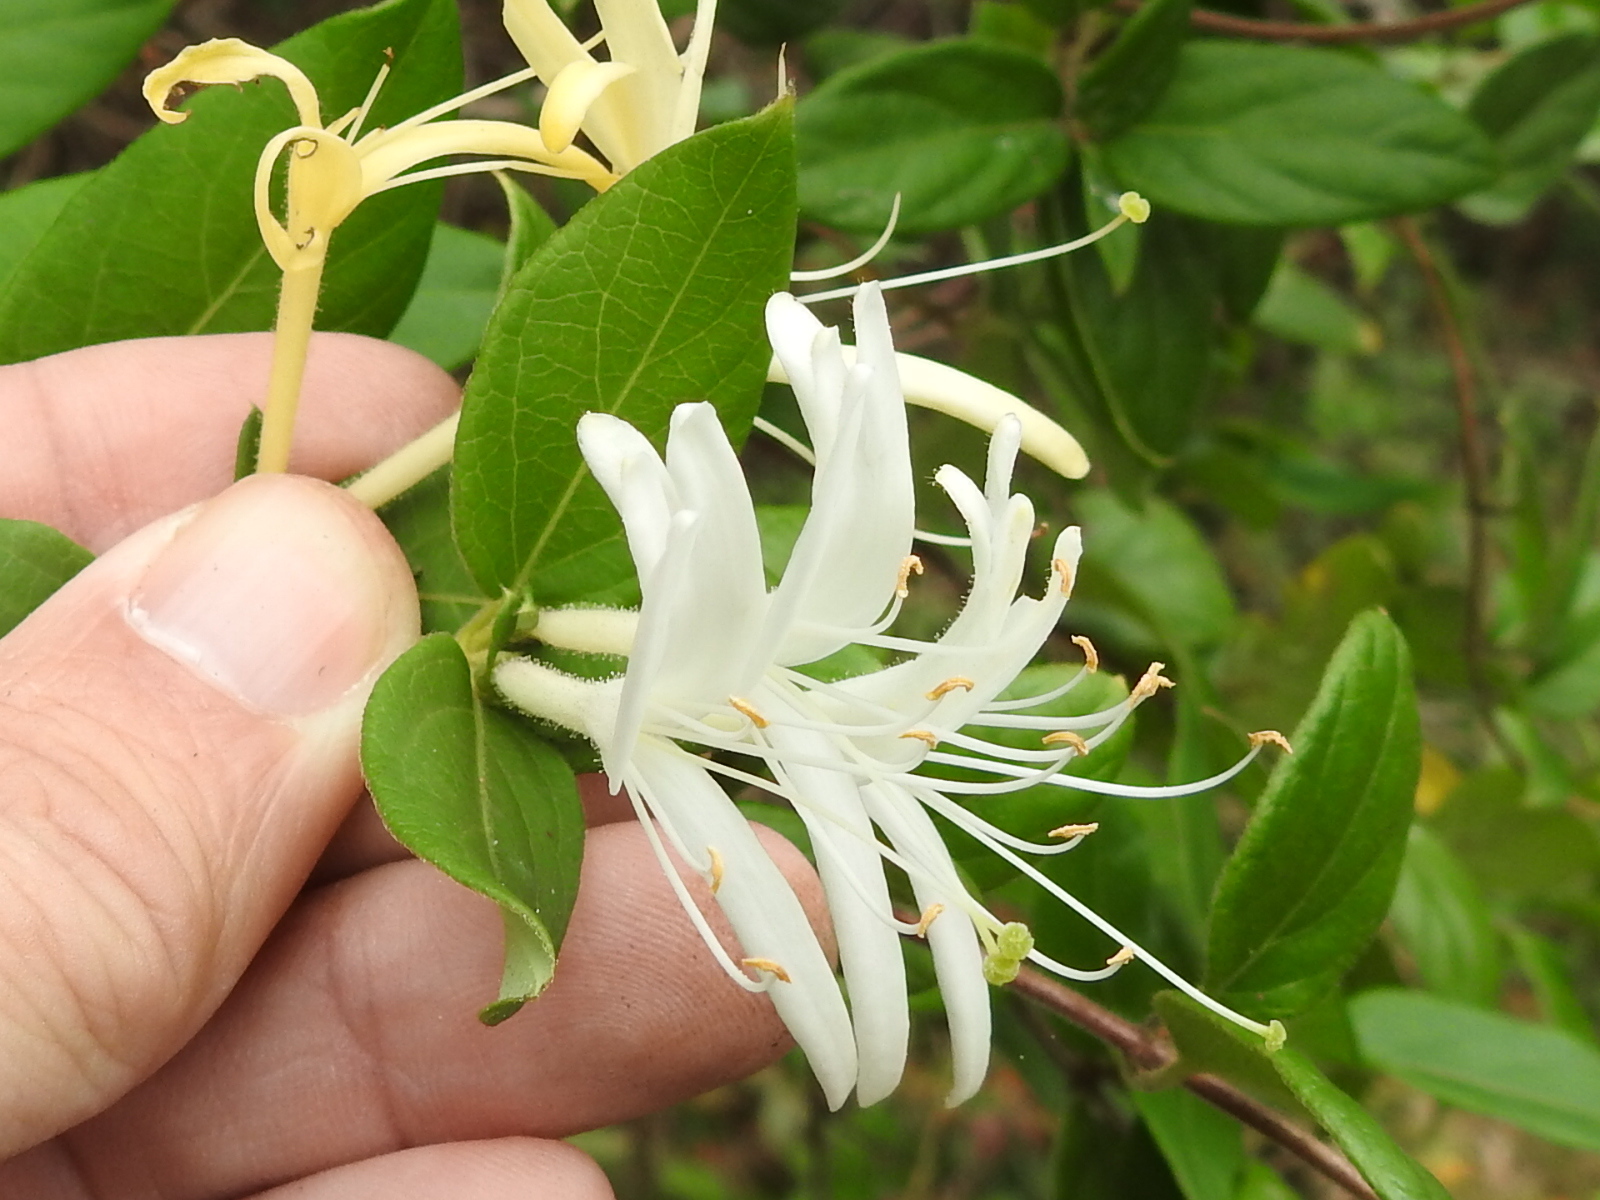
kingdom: Plantae
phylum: Tracheophyta
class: Magnoliopsida
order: Dipsacales
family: Caprifoliaceae
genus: Lonicera
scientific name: Lonicera japonica
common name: Japanese honeysuckle
